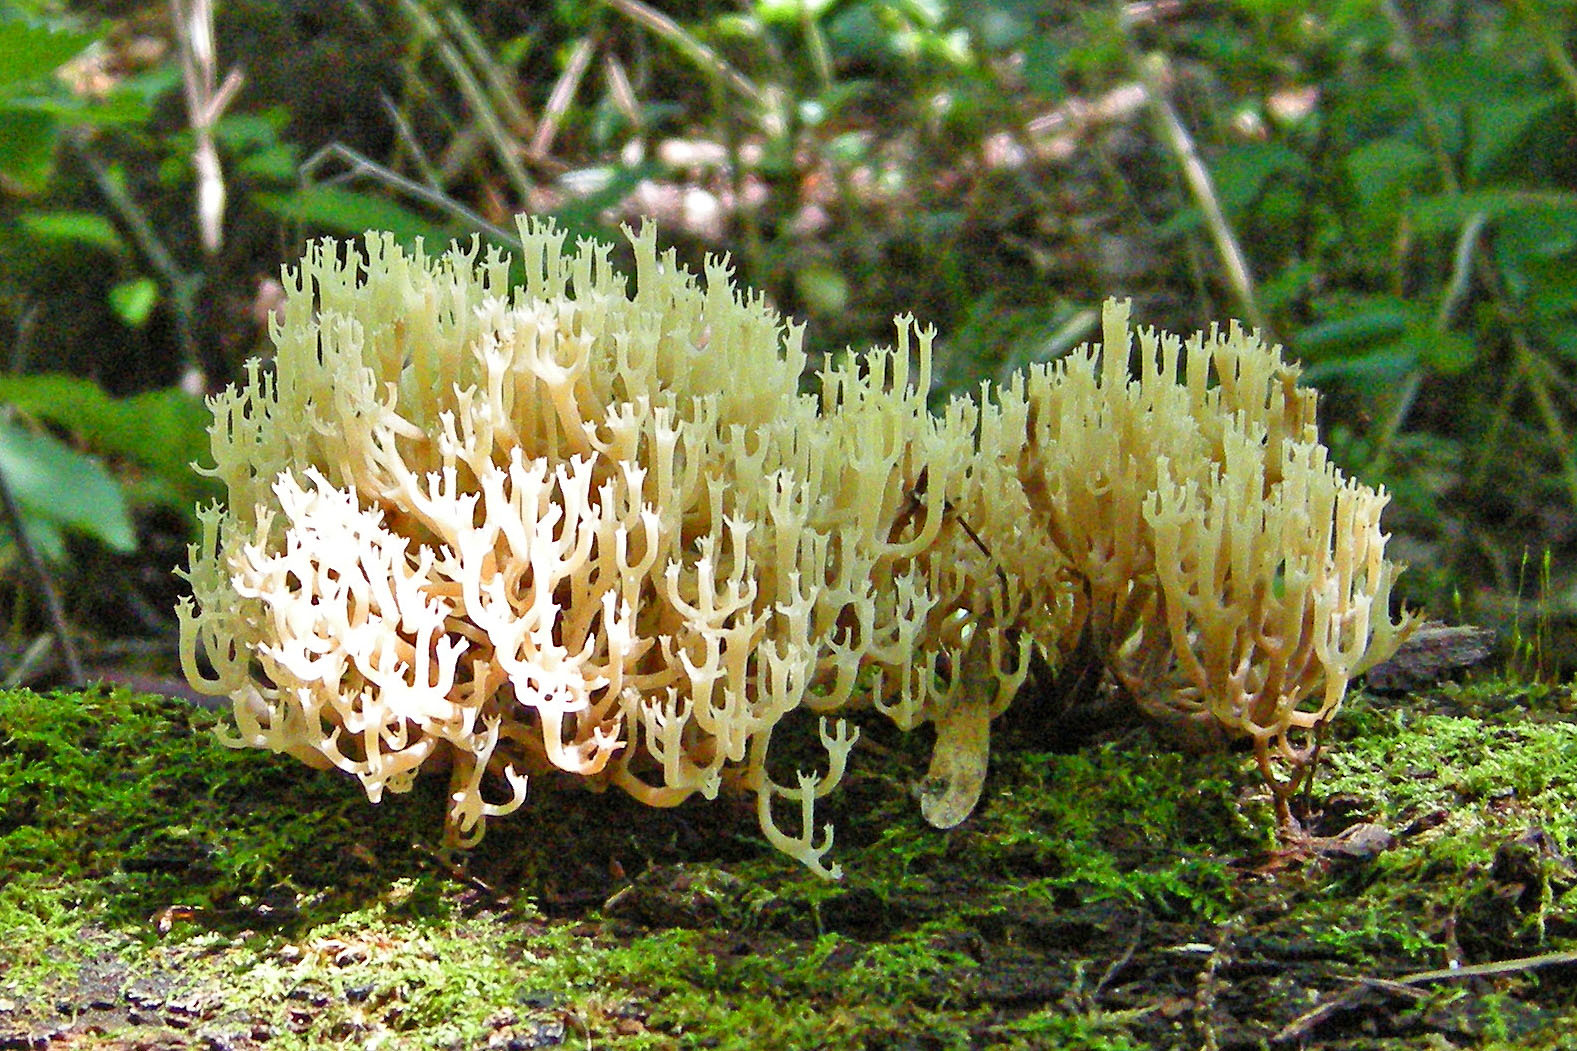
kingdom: Fungi
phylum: Basidiomycota
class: Agaricomycetes
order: Russulales
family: Auriscalpiaceae
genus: Artomyces
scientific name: Artomyces pyxidatus
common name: Crown-tipped coral fungus
